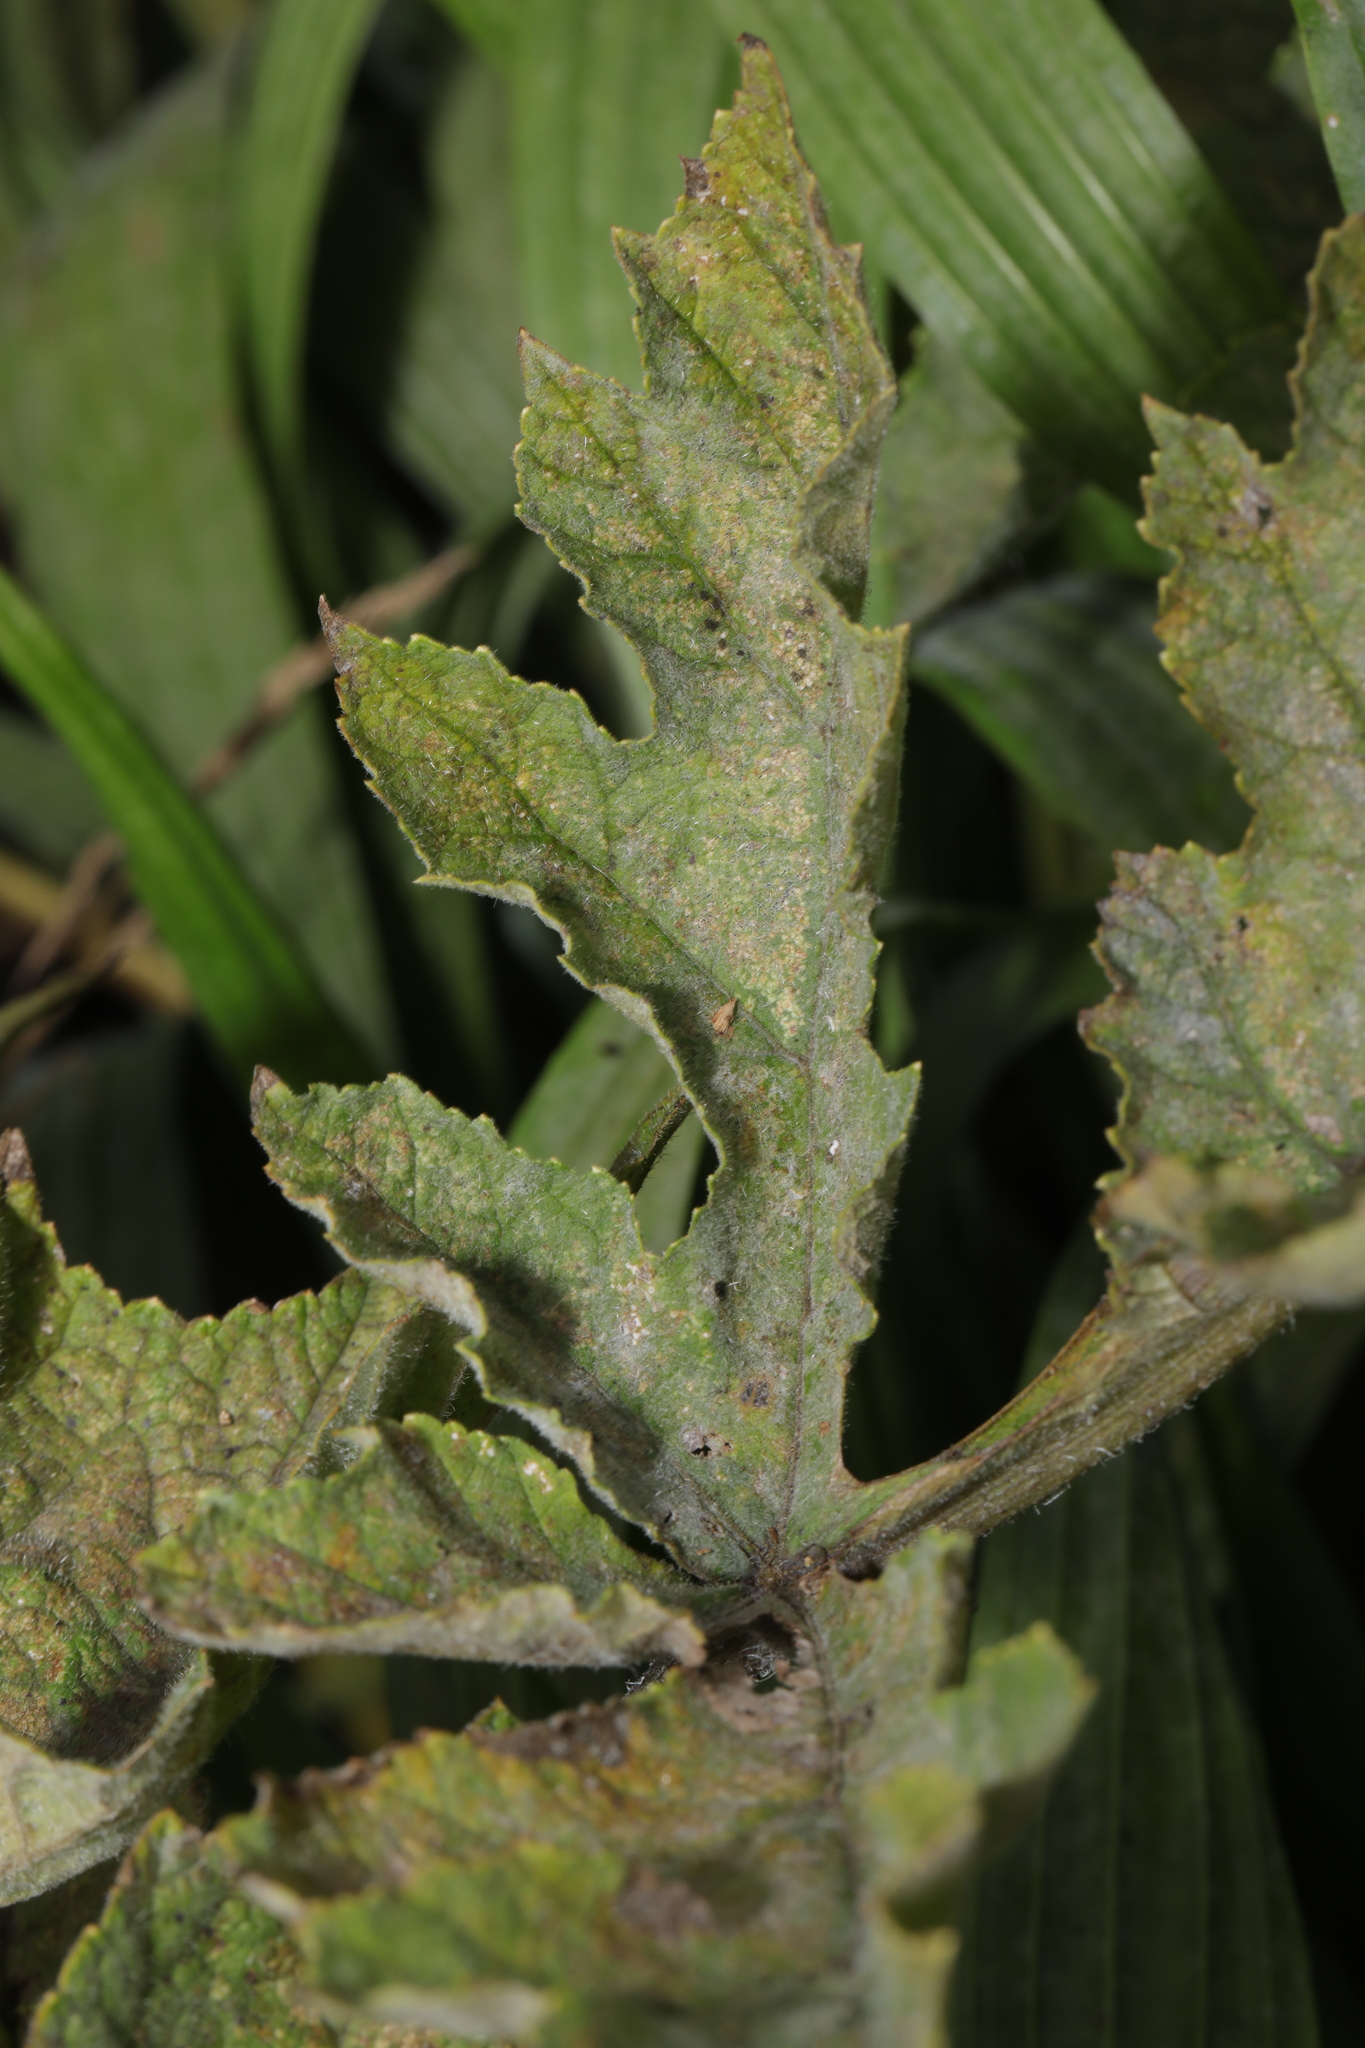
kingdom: Fungi
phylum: Ascomycota
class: Leotiomycetes
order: Helotiales
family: Erysiphaceae
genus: Erysiphe
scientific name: Erysiphe heraclei
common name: Umbellifer mildew
